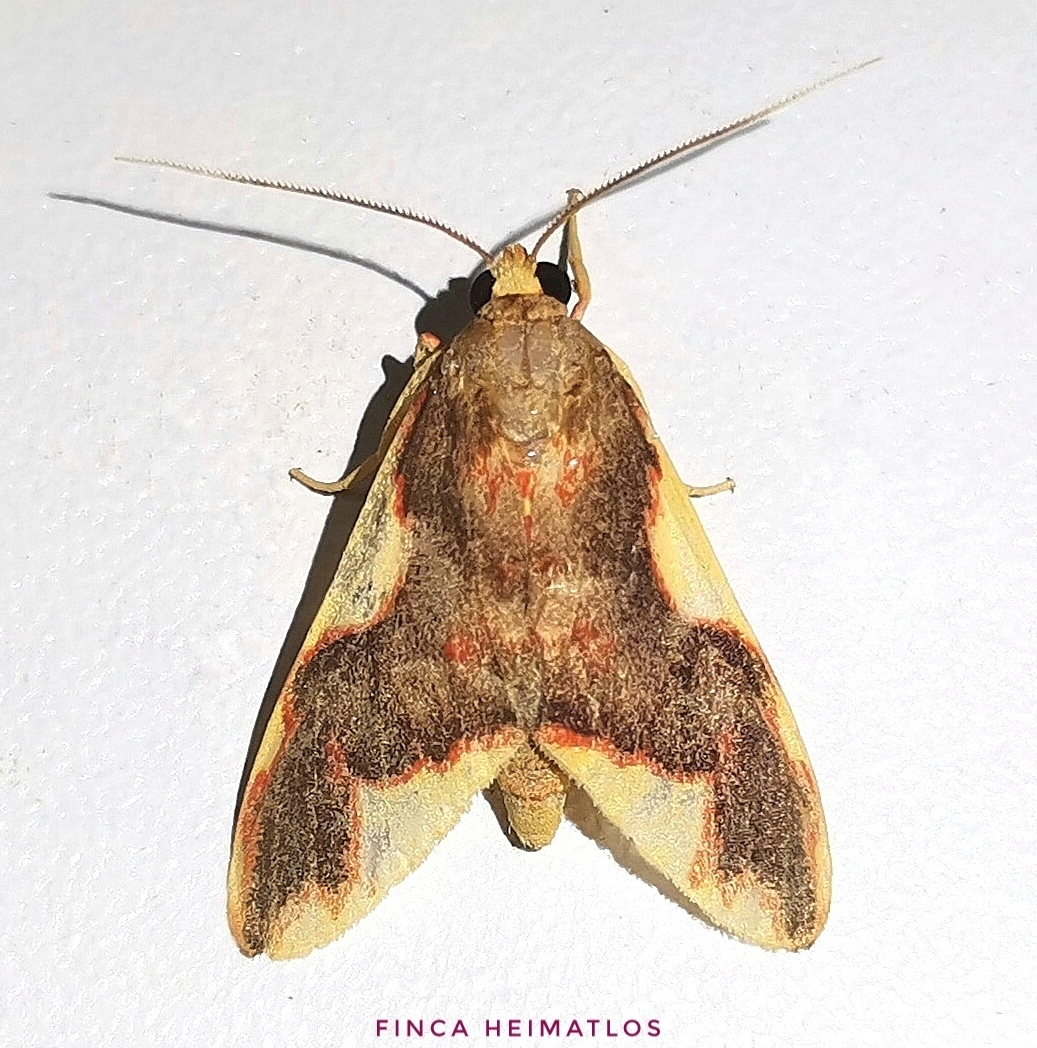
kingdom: Animalia
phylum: Arthropoda
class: Insecta
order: Lepidoptera
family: Erebidae
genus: Hyponerita
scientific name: Hyponerita declivis
